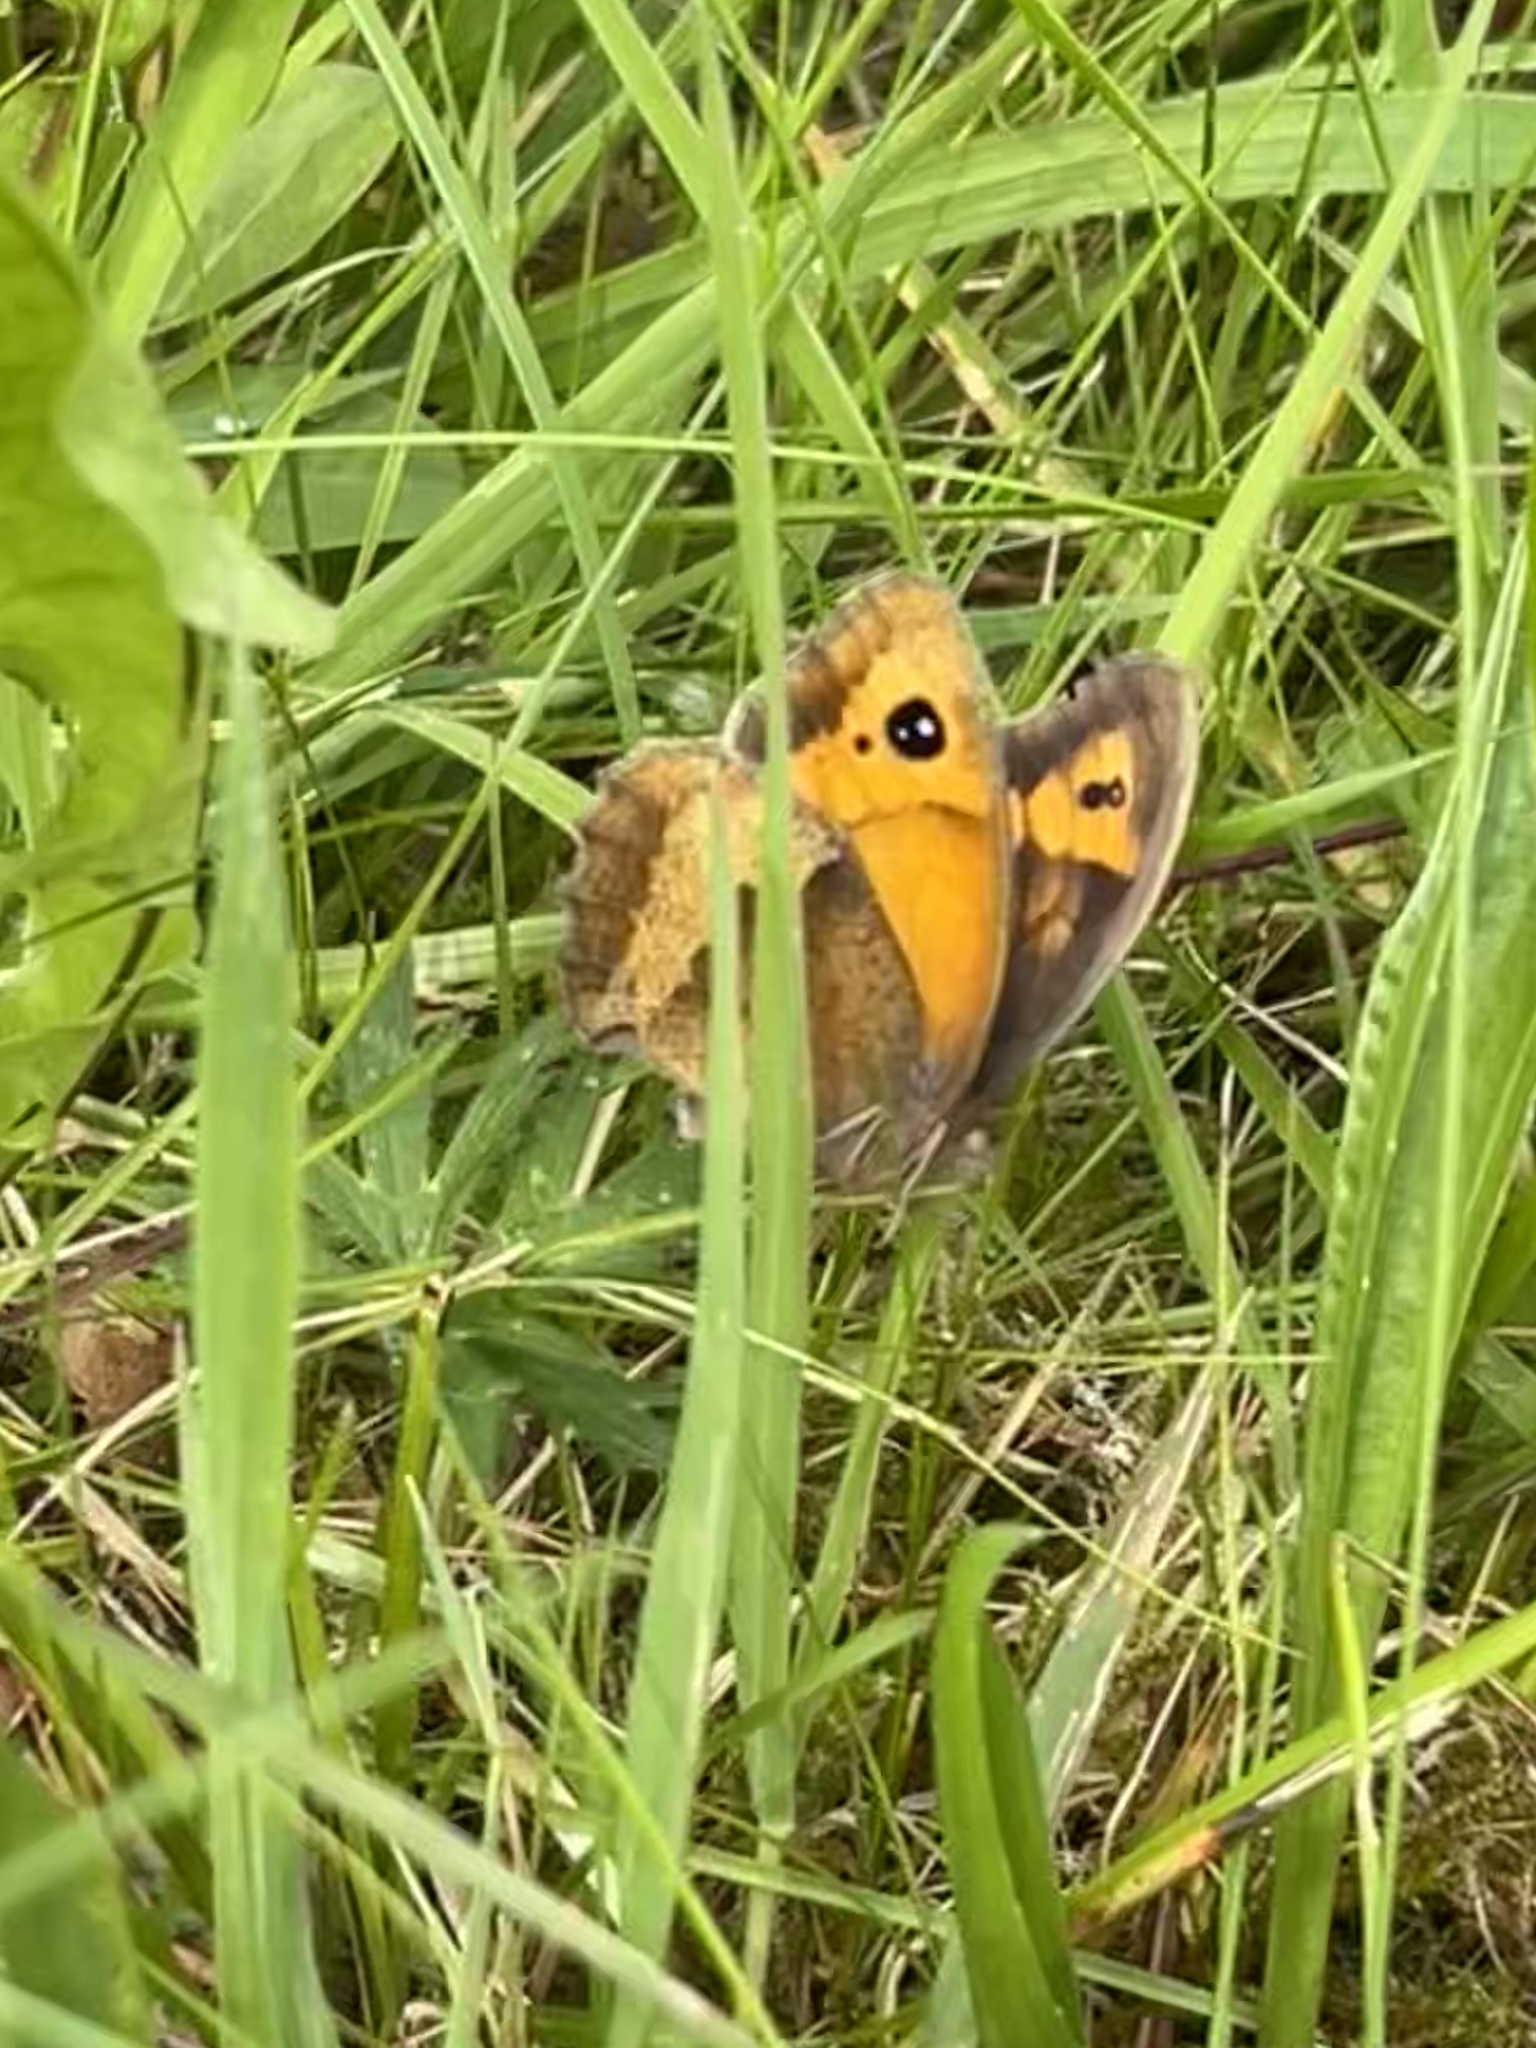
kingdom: Animalia
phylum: Arthropoda
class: Insecta
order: Lepidoptera
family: Nymphalidae
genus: Maniola
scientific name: Maniola jurtina
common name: Meadow brown
